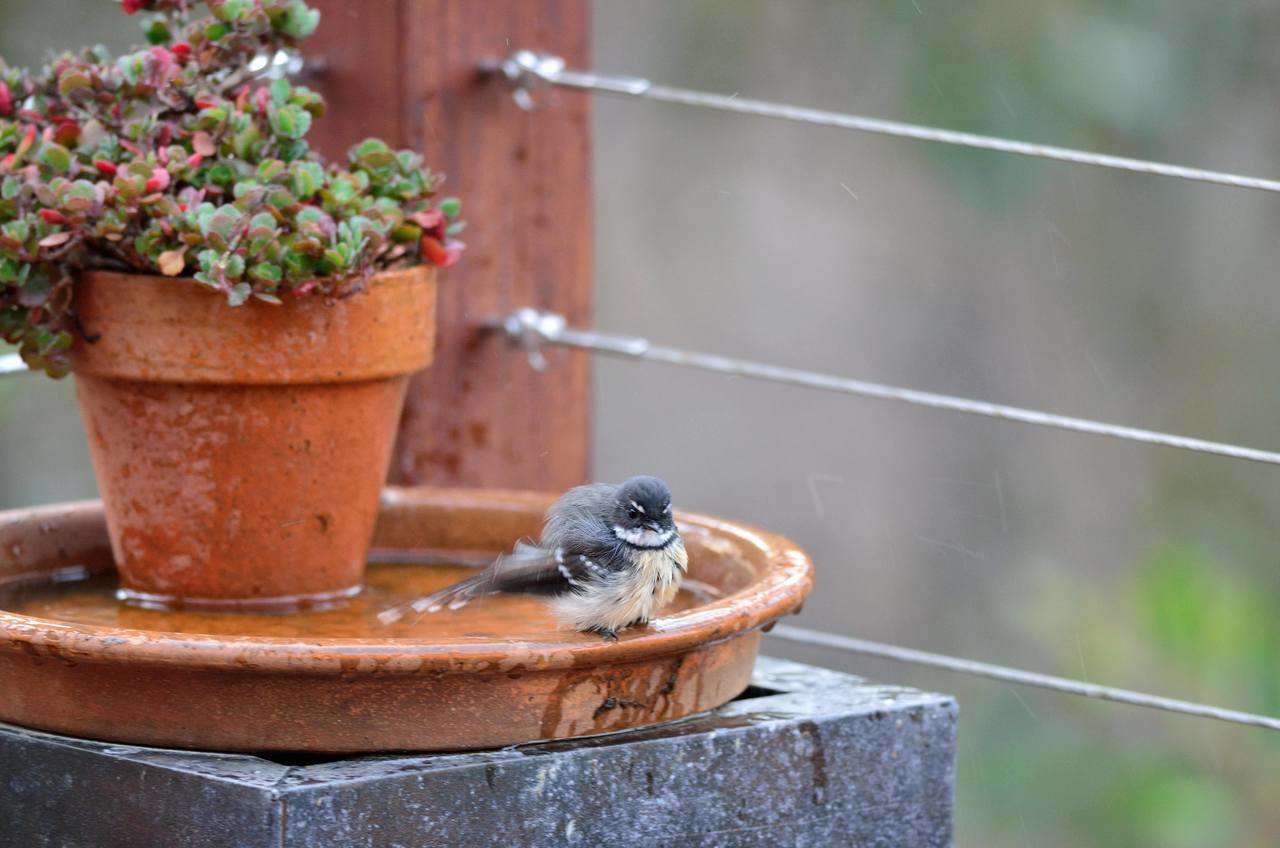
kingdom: Animalia
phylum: Chordata
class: Aves
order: Passeriformes
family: Rhipiduridae
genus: Rhipidura
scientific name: Rhipidura albiscapa
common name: Grey fantail
